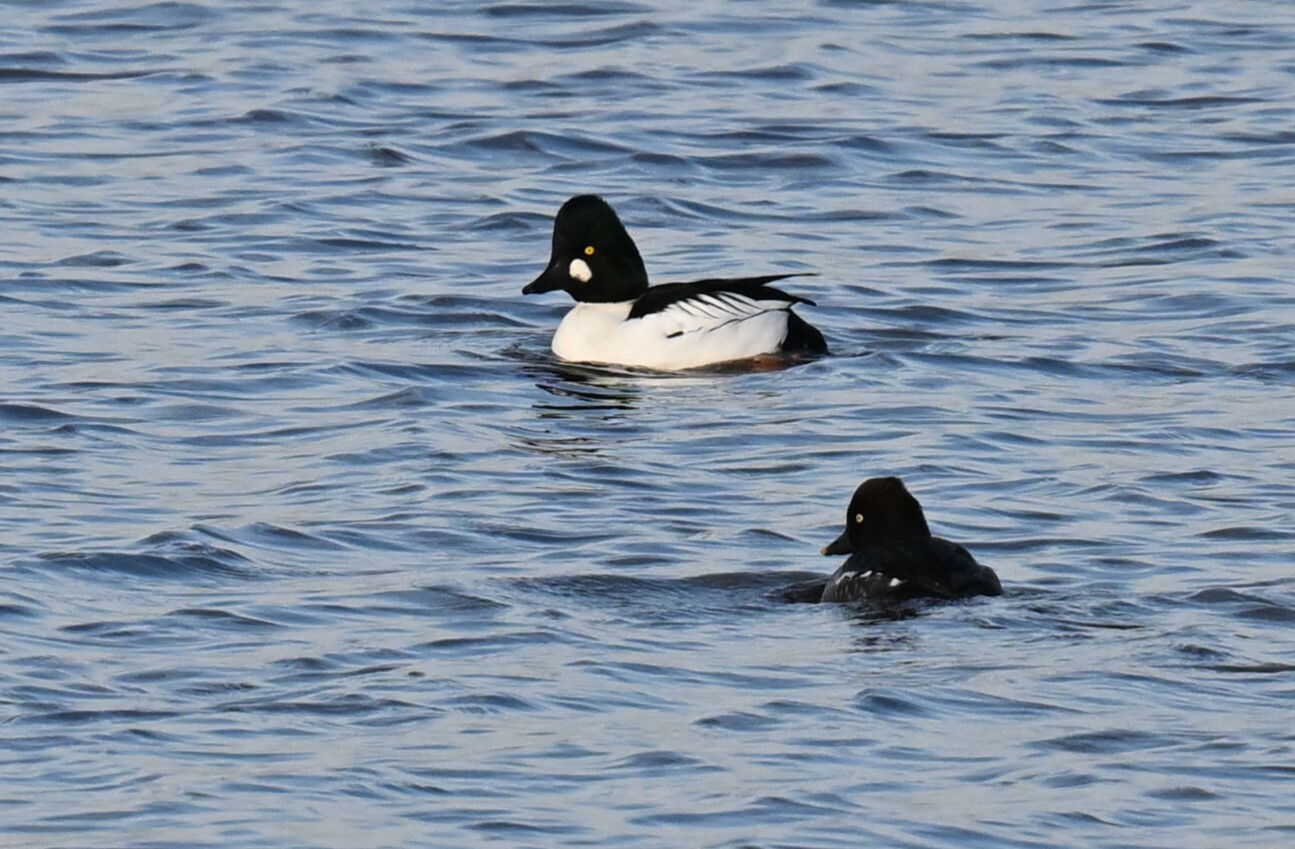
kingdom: Animalia
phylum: Chordata
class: Aves
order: Anseriformes
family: Anatidae
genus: Bucephala
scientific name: Bucephala clangula
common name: Common goldeneye
